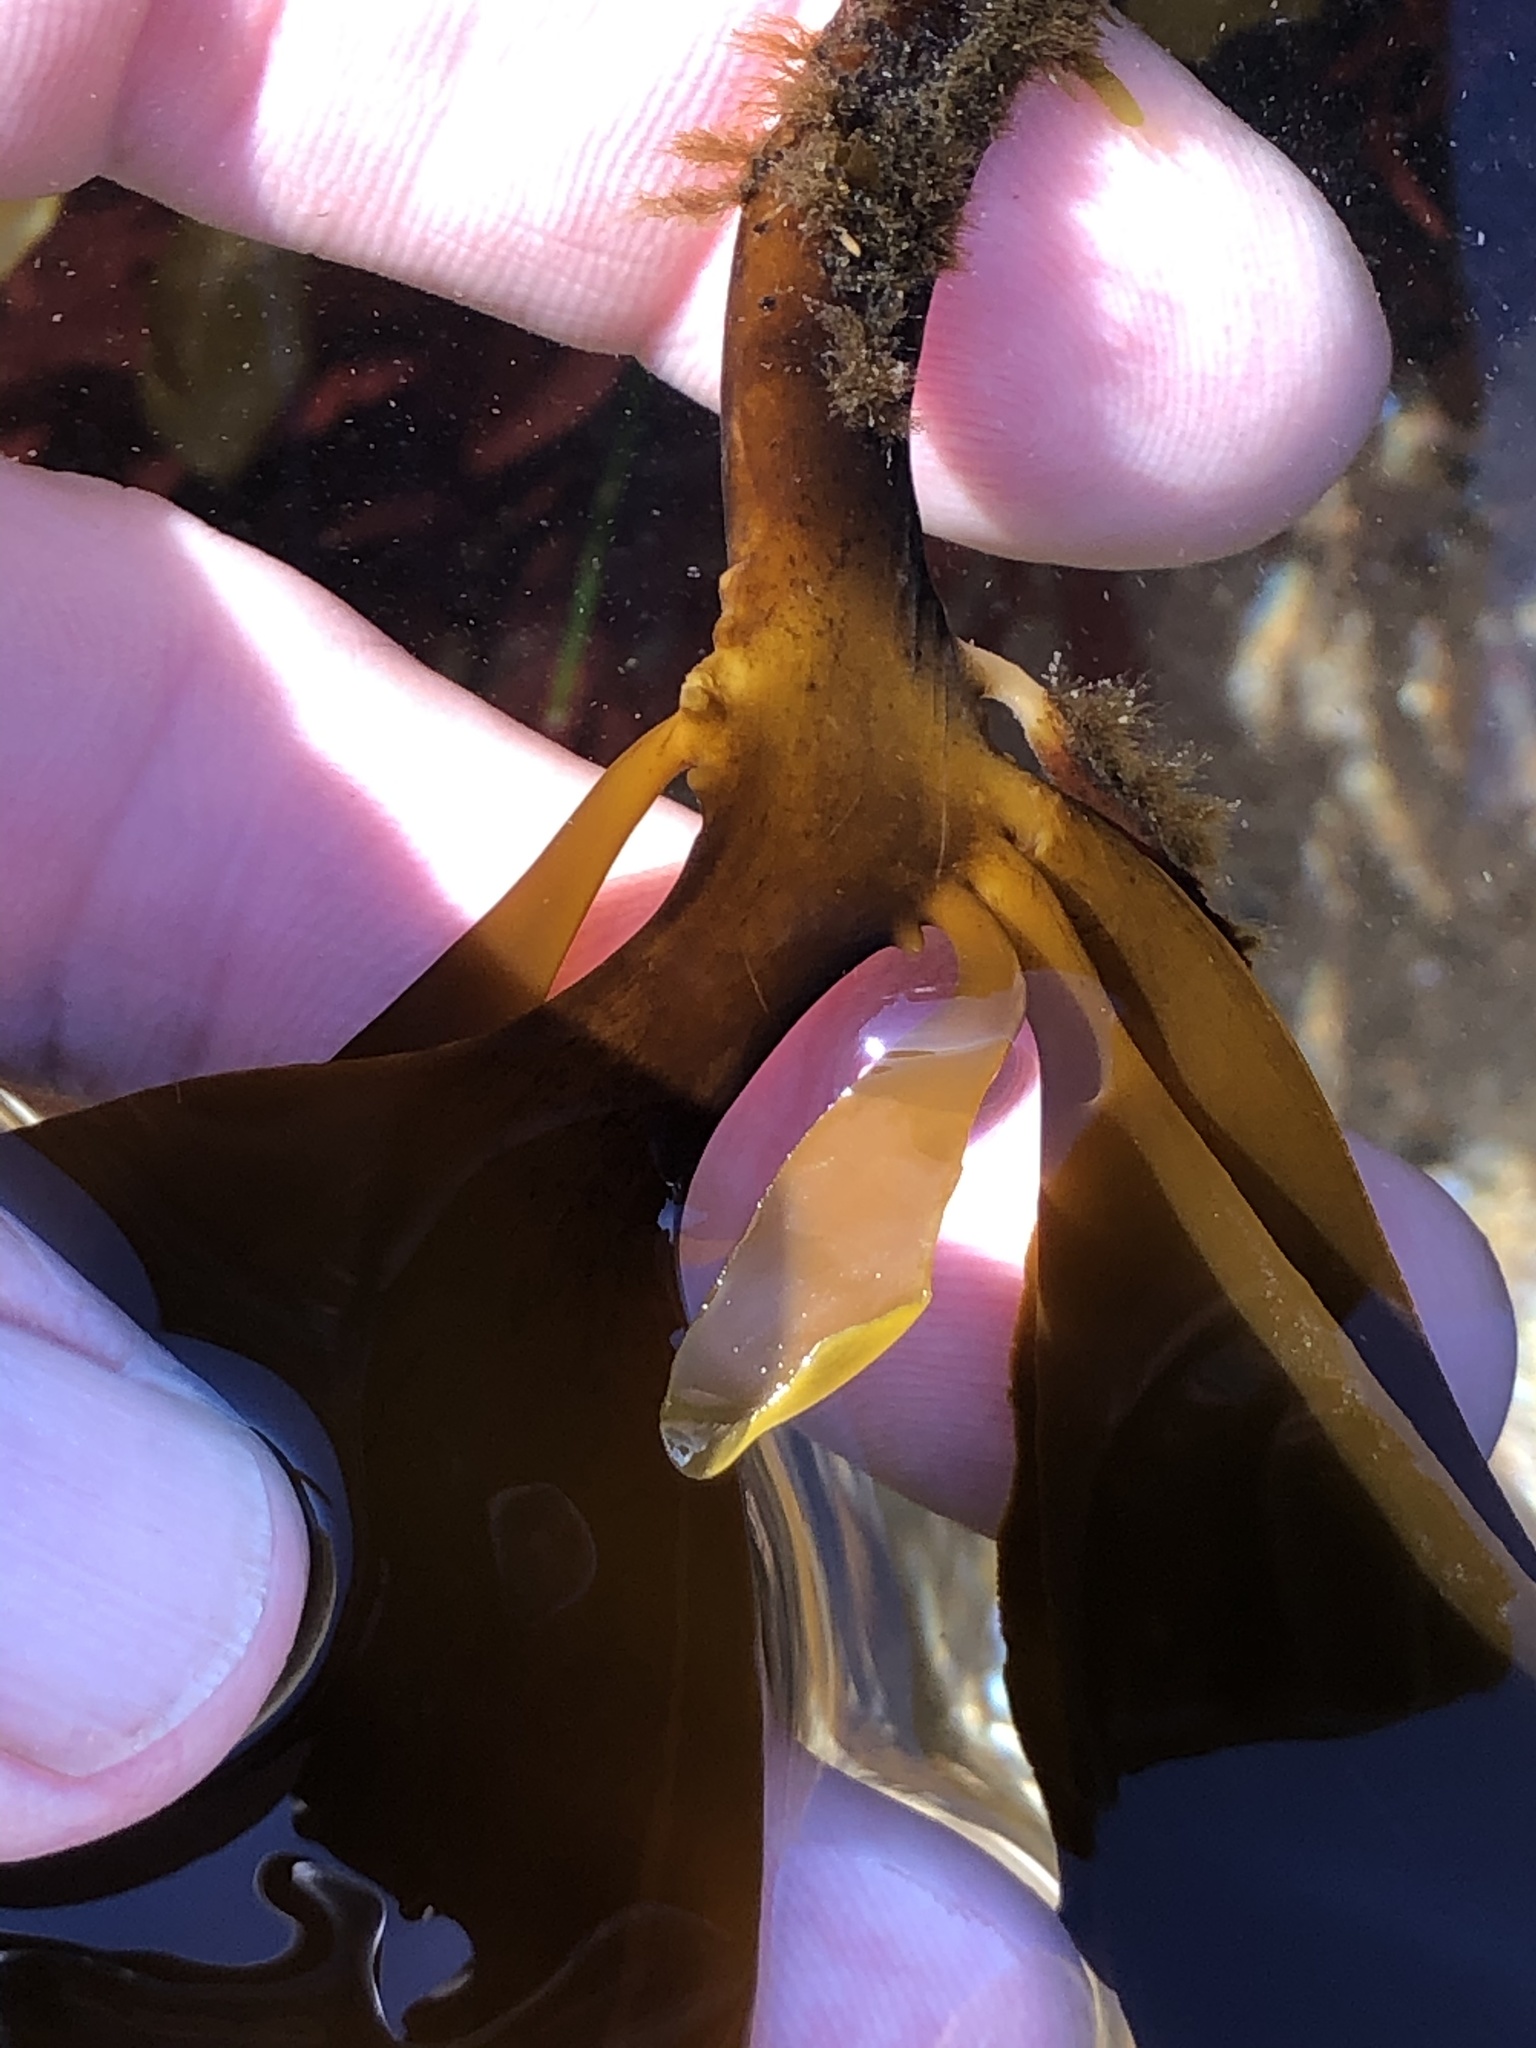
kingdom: Chromista
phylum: Ochrophyta
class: Phaeophyceae
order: Laminariales
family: Alariaceae
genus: Pterygophora
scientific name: Pterygophora californica
